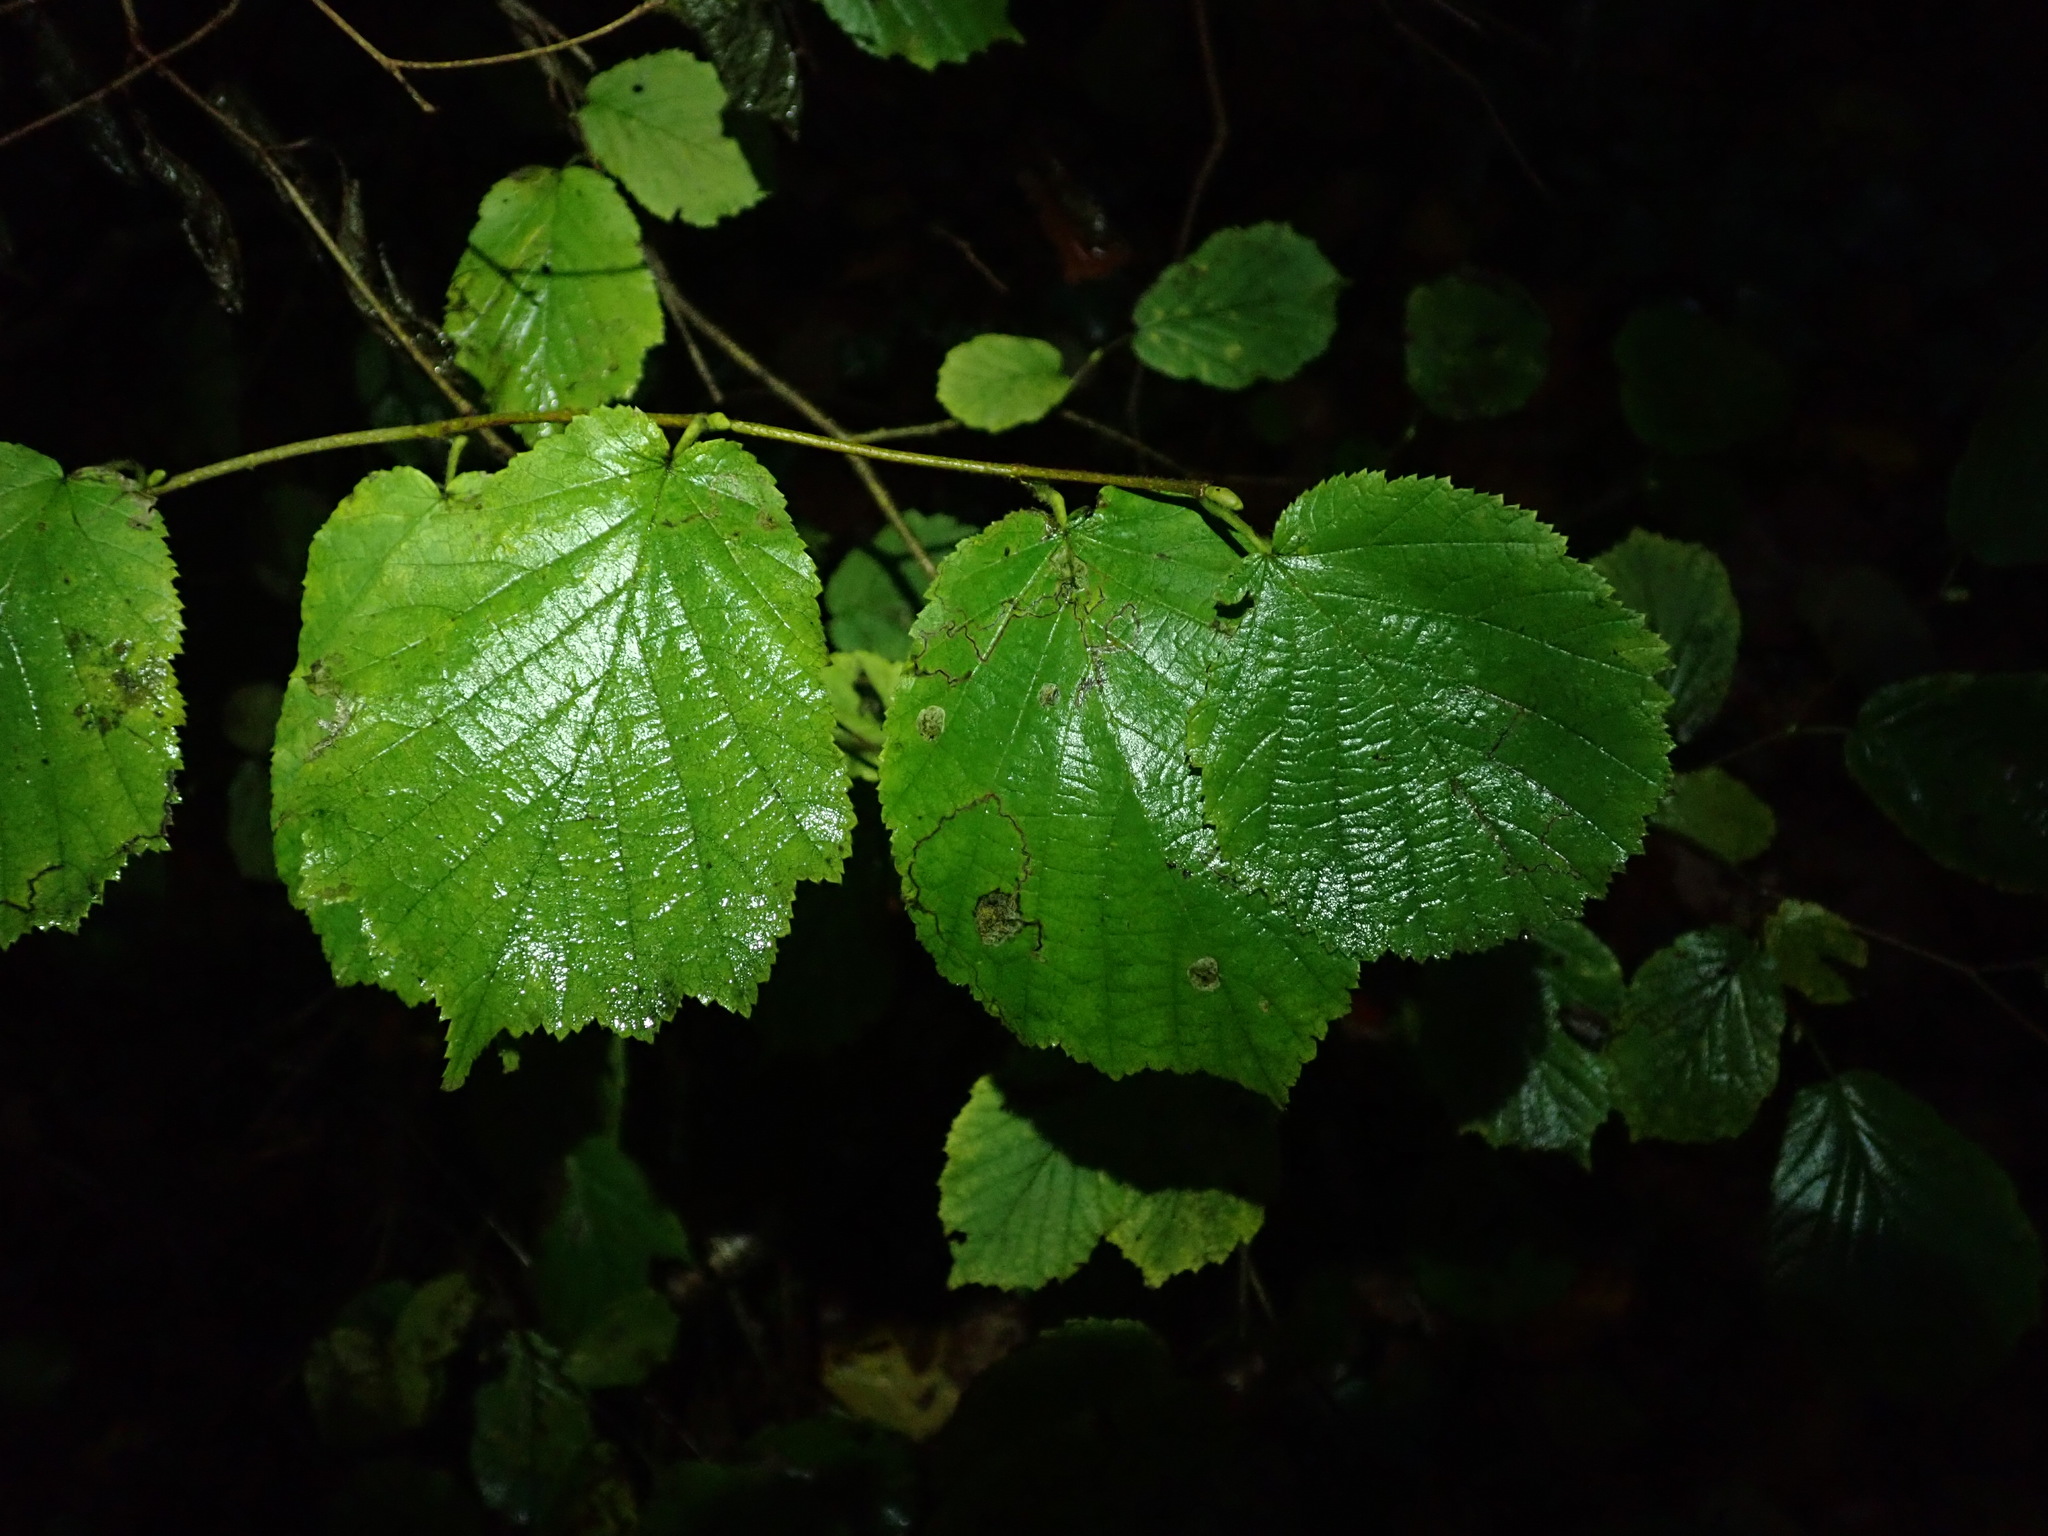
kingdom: Plantae
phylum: Tracheophyta
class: Magnoliopsida
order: Fagales
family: Betulaceae
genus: Corylus
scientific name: Corylus avellana
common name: European hazel
